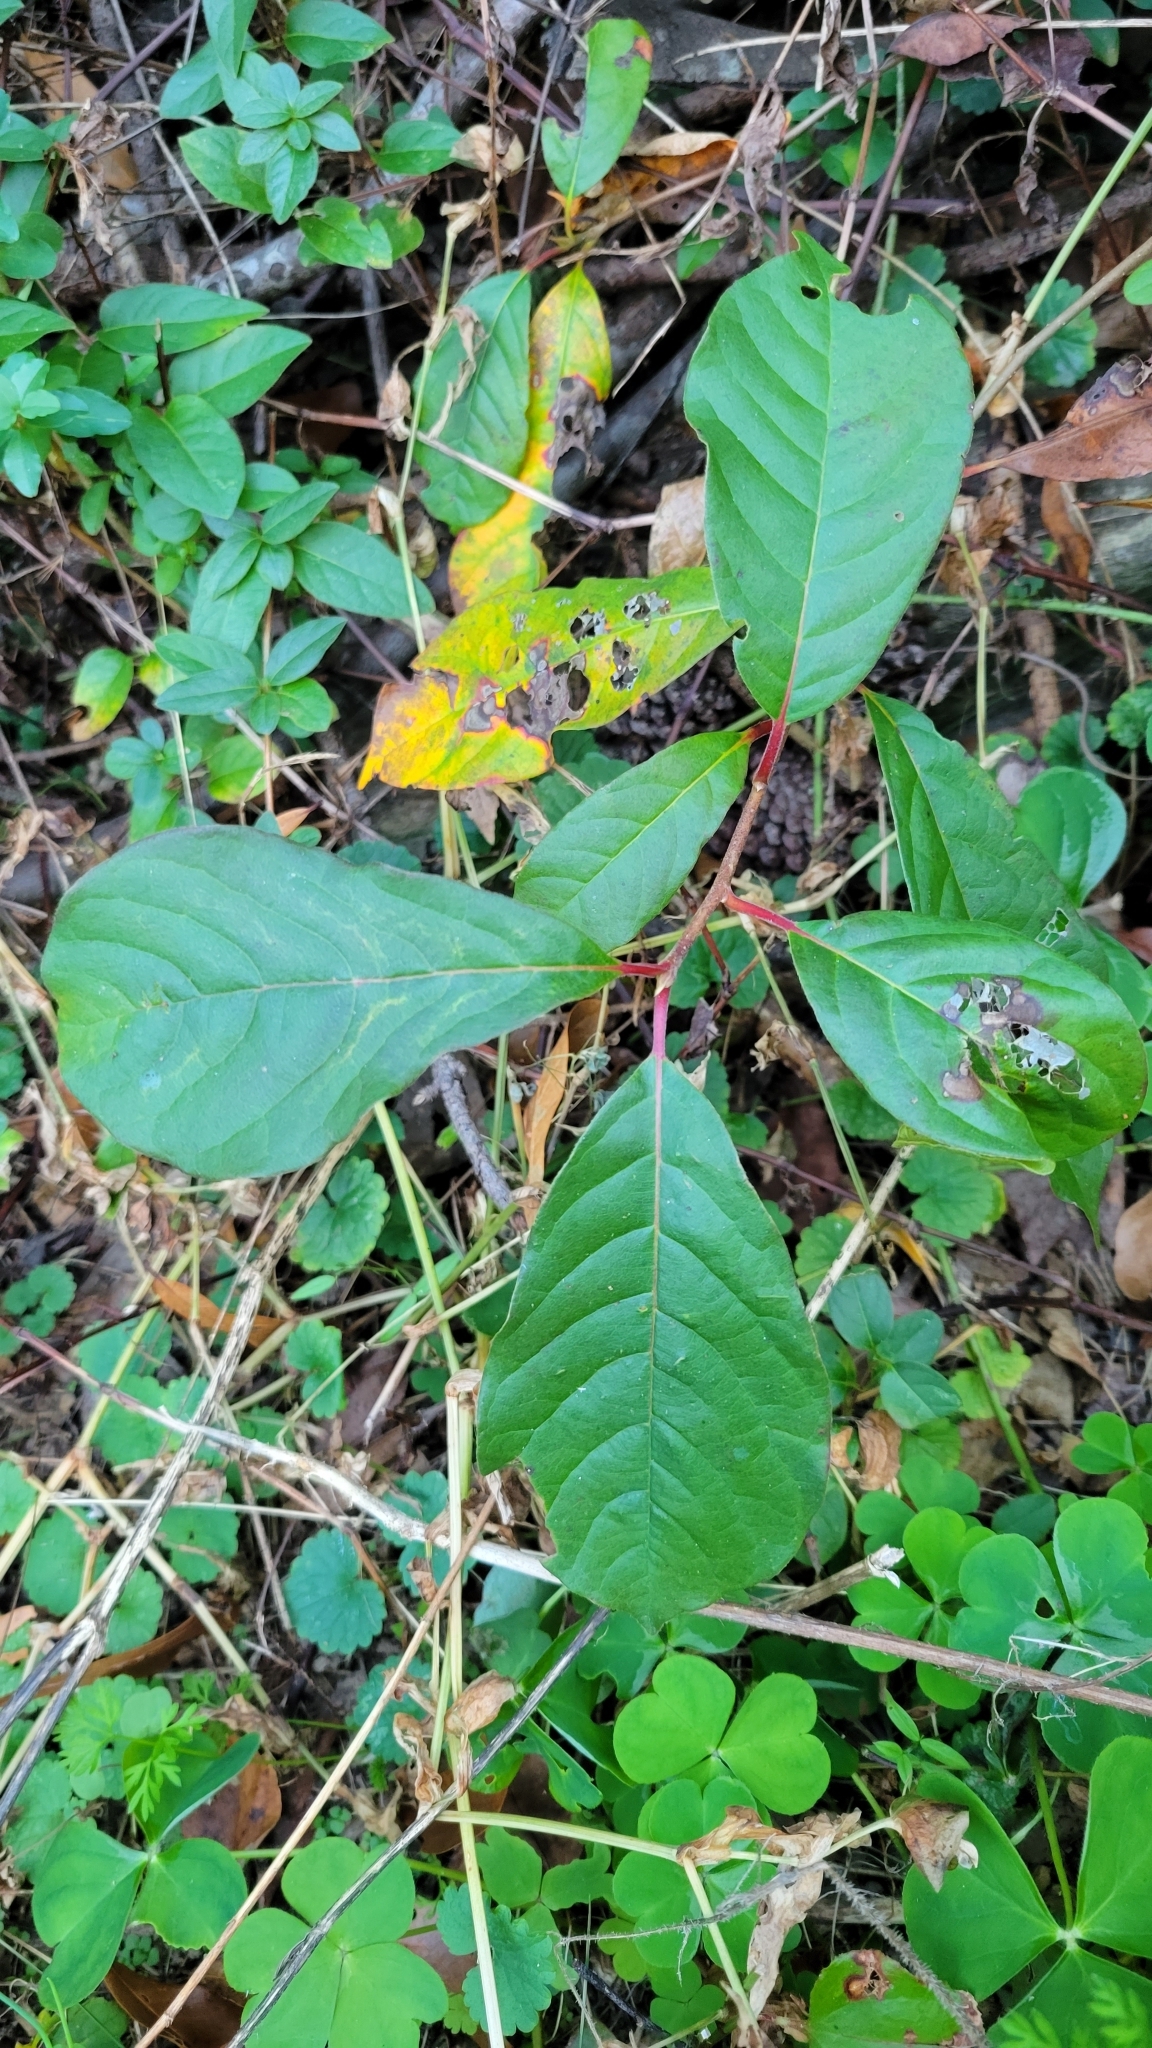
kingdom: Plantae
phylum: Tracheophyta
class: Magnoliopsida
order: Cornales
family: Nyssaceae
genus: Nyssa
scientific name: Nyssa sylvatica
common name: Black tupelo
